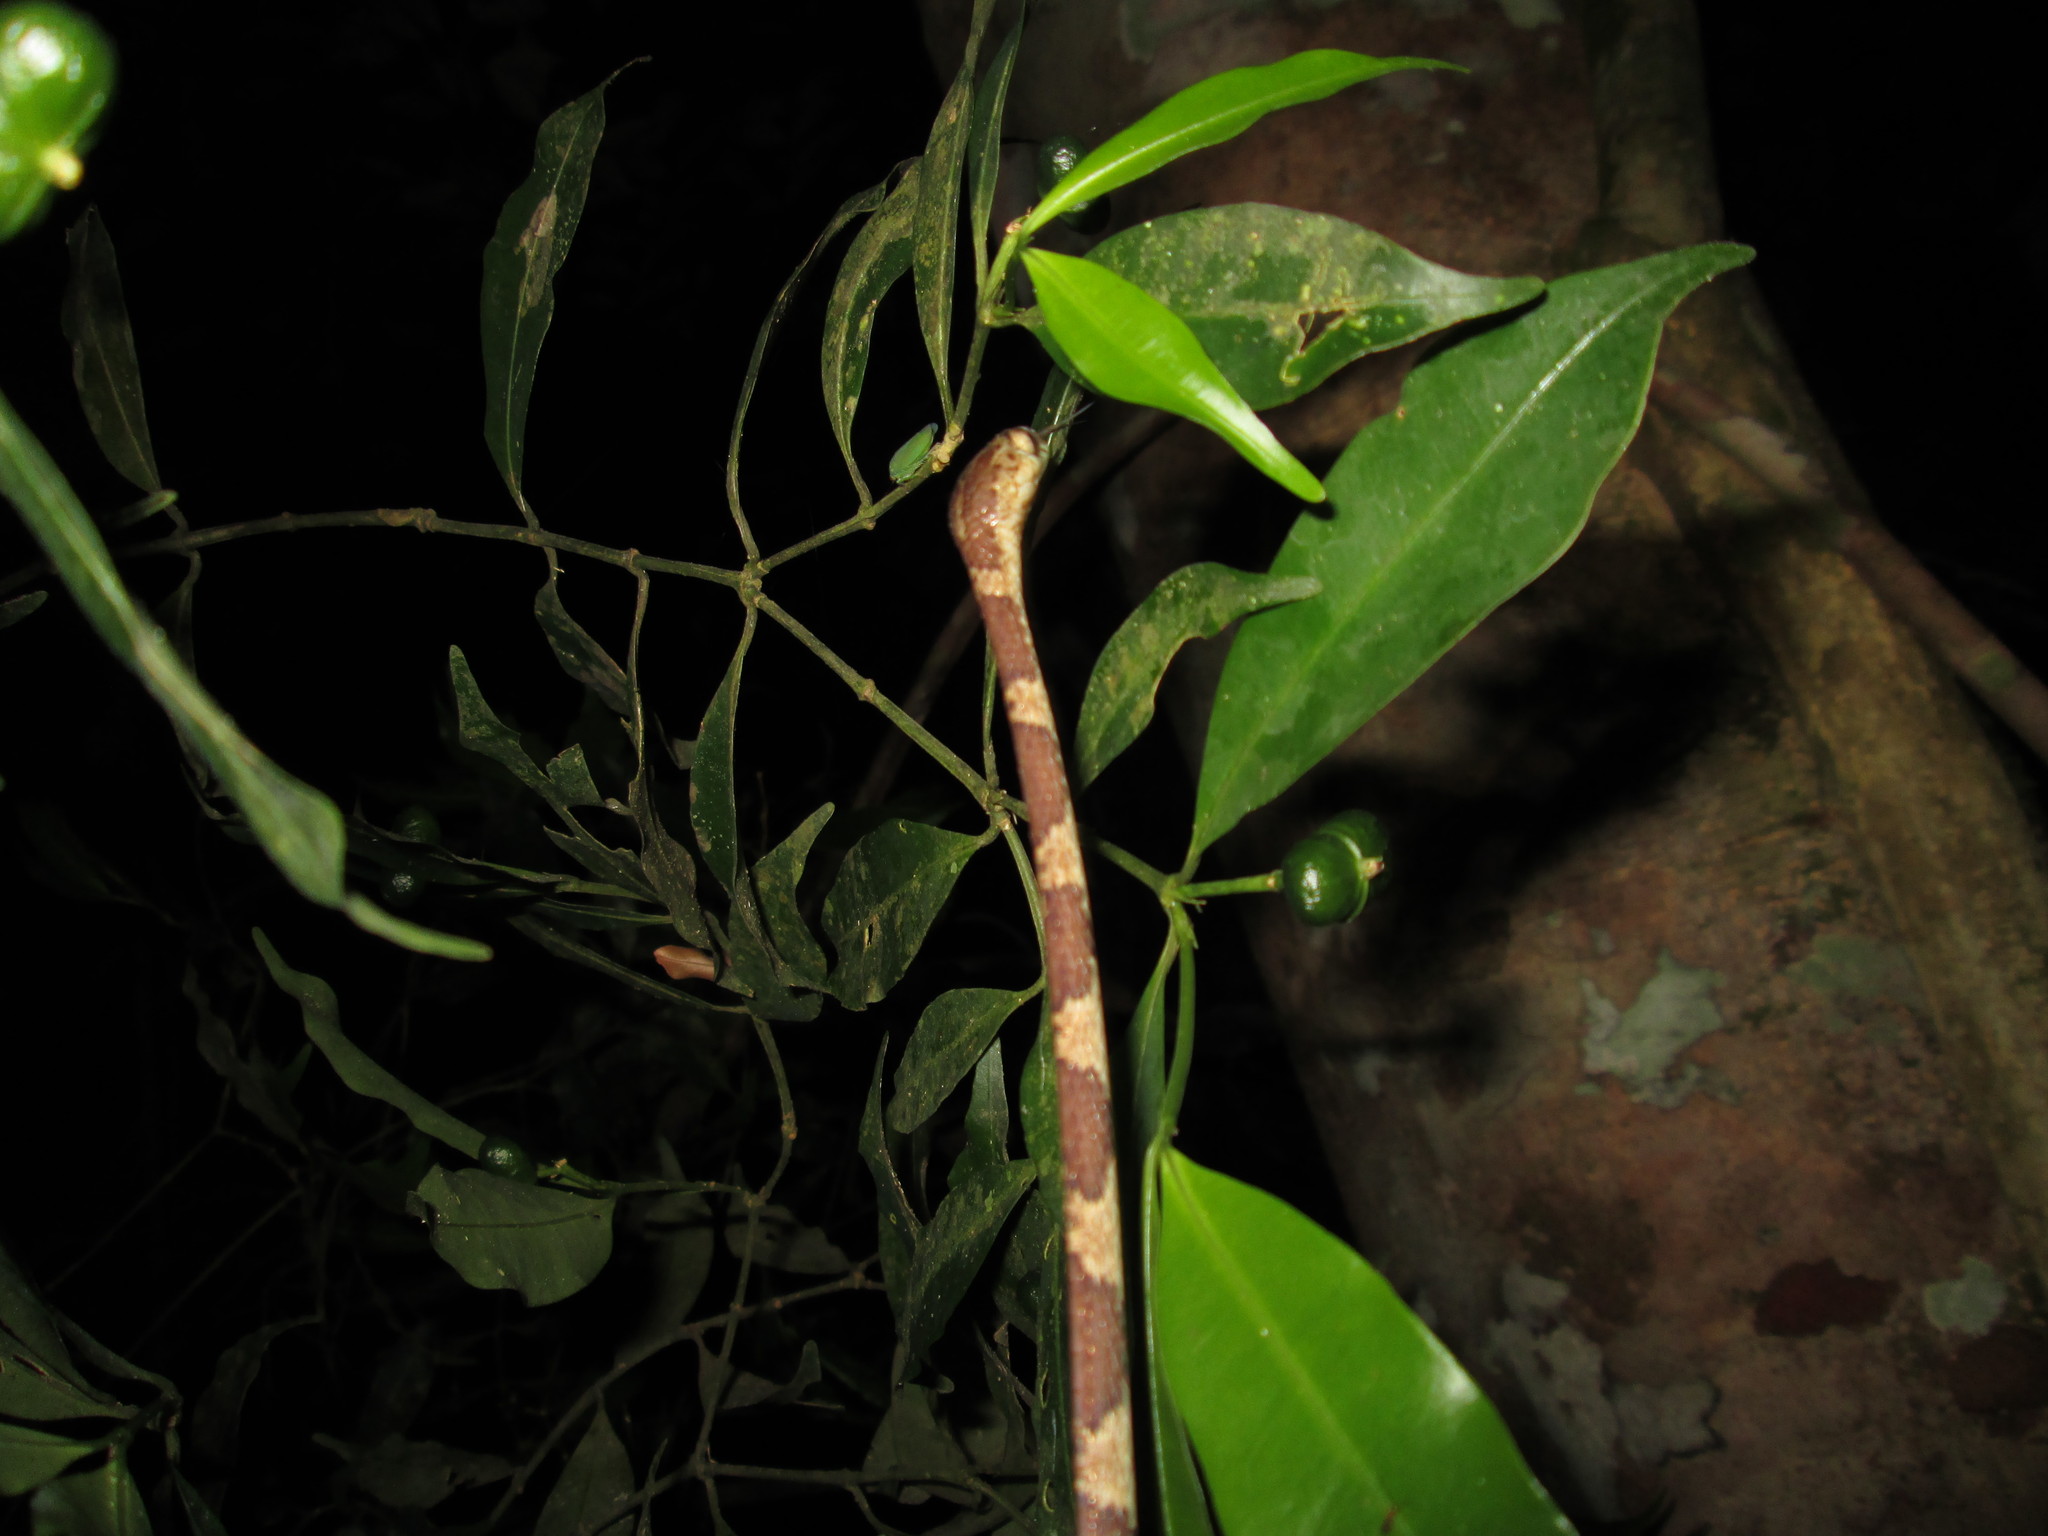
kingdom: Animalia
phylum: Chordata
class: Squamata
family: Colubridae
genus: Imantodes
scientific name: Imantodes cenchoa
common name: Blunthead tree snake
